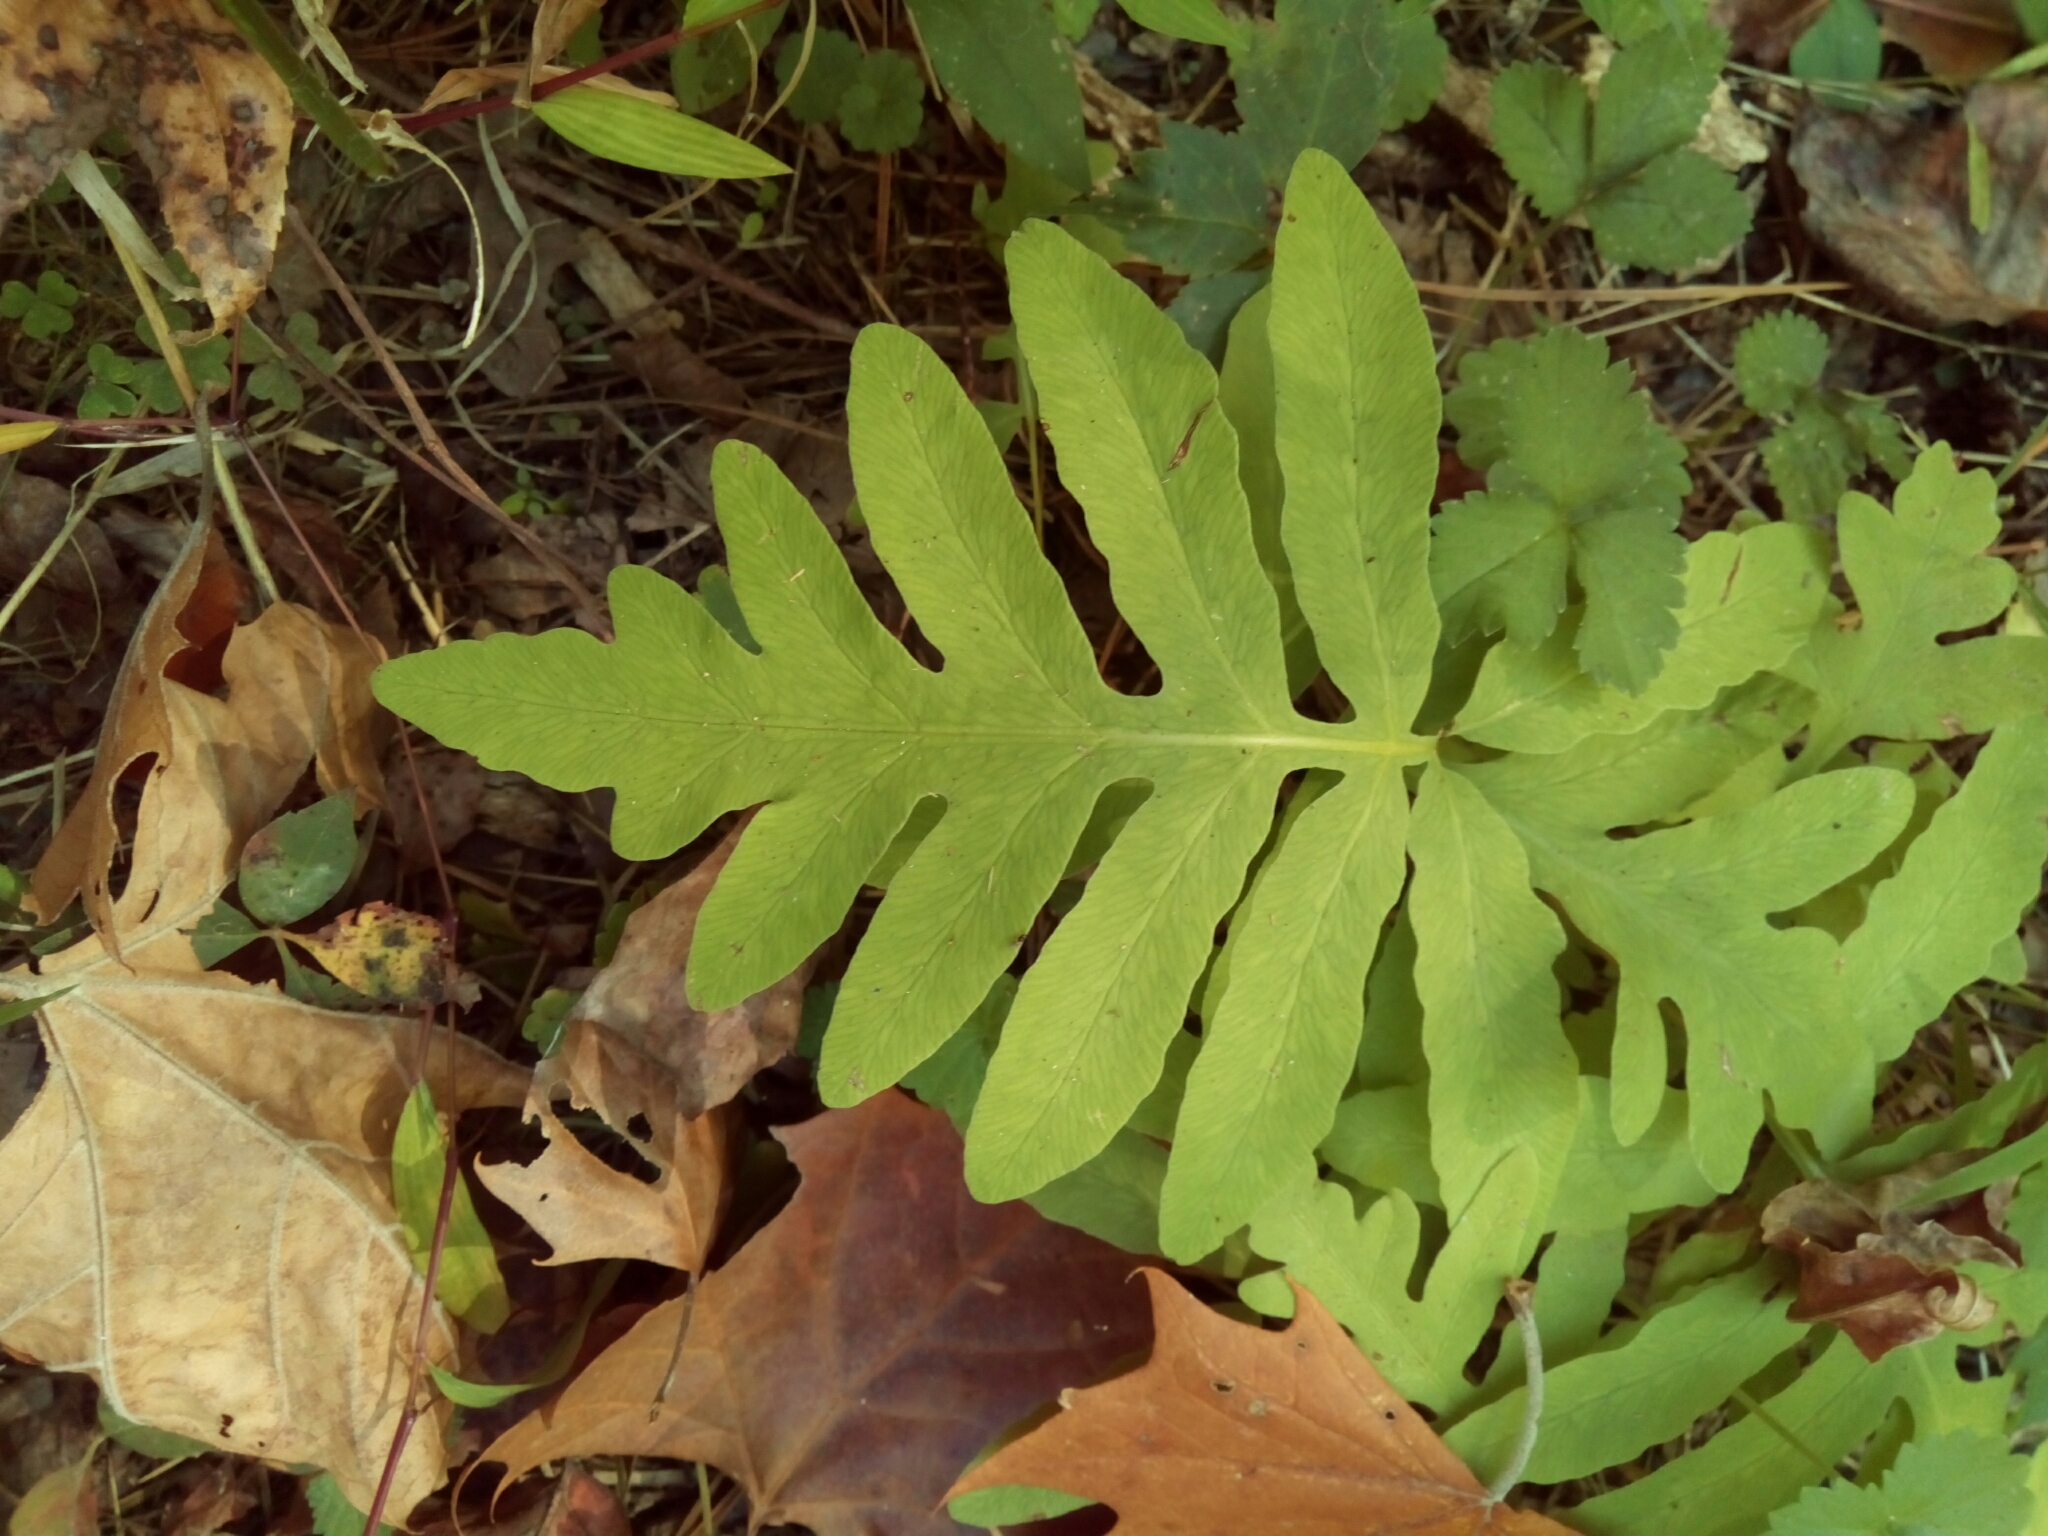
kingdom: Plantae
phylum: Tracheophyta
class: Polypodiopsida
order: Polypodiales
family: Onocleaceae
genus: Onoclea
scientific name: Onoclea sensibilis
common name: Sensitive fern
